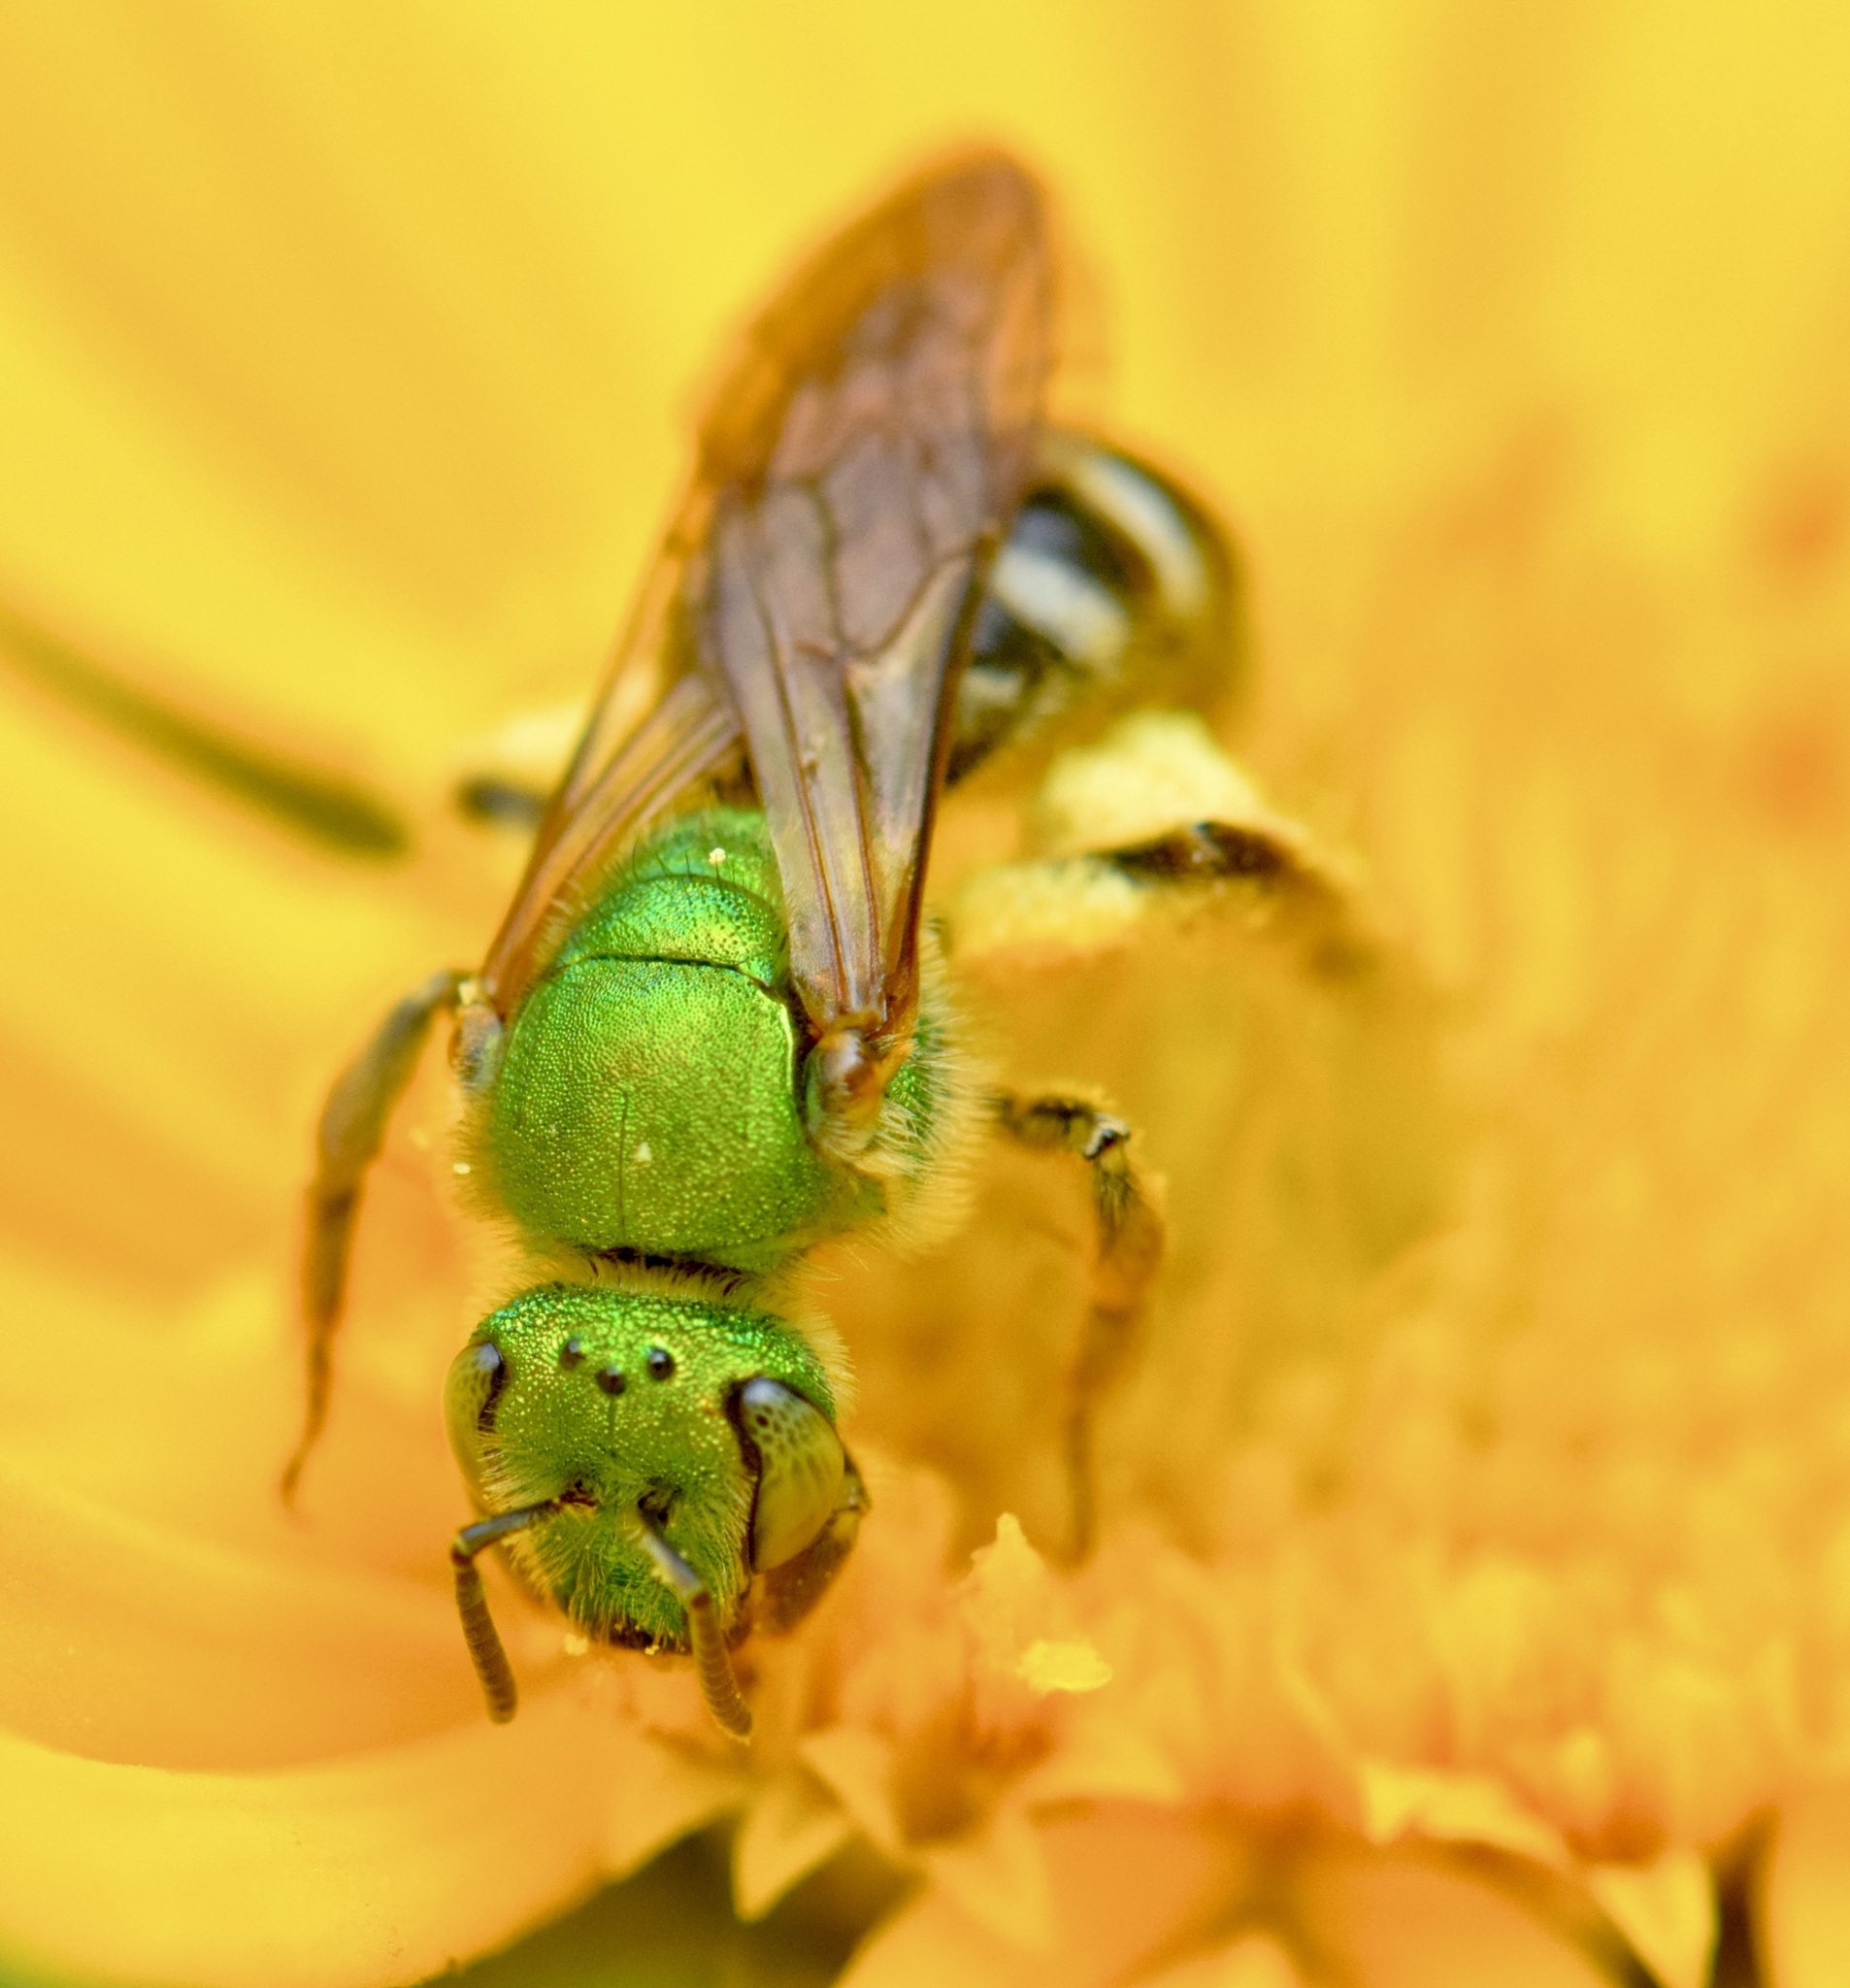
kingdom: Animalia
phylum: Arthropoda
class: Insecta
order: Hymenoptera
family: Halictidae
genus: Agapostemon
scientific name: Agapostemon virescens
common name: Bicolored striped sweat bee
